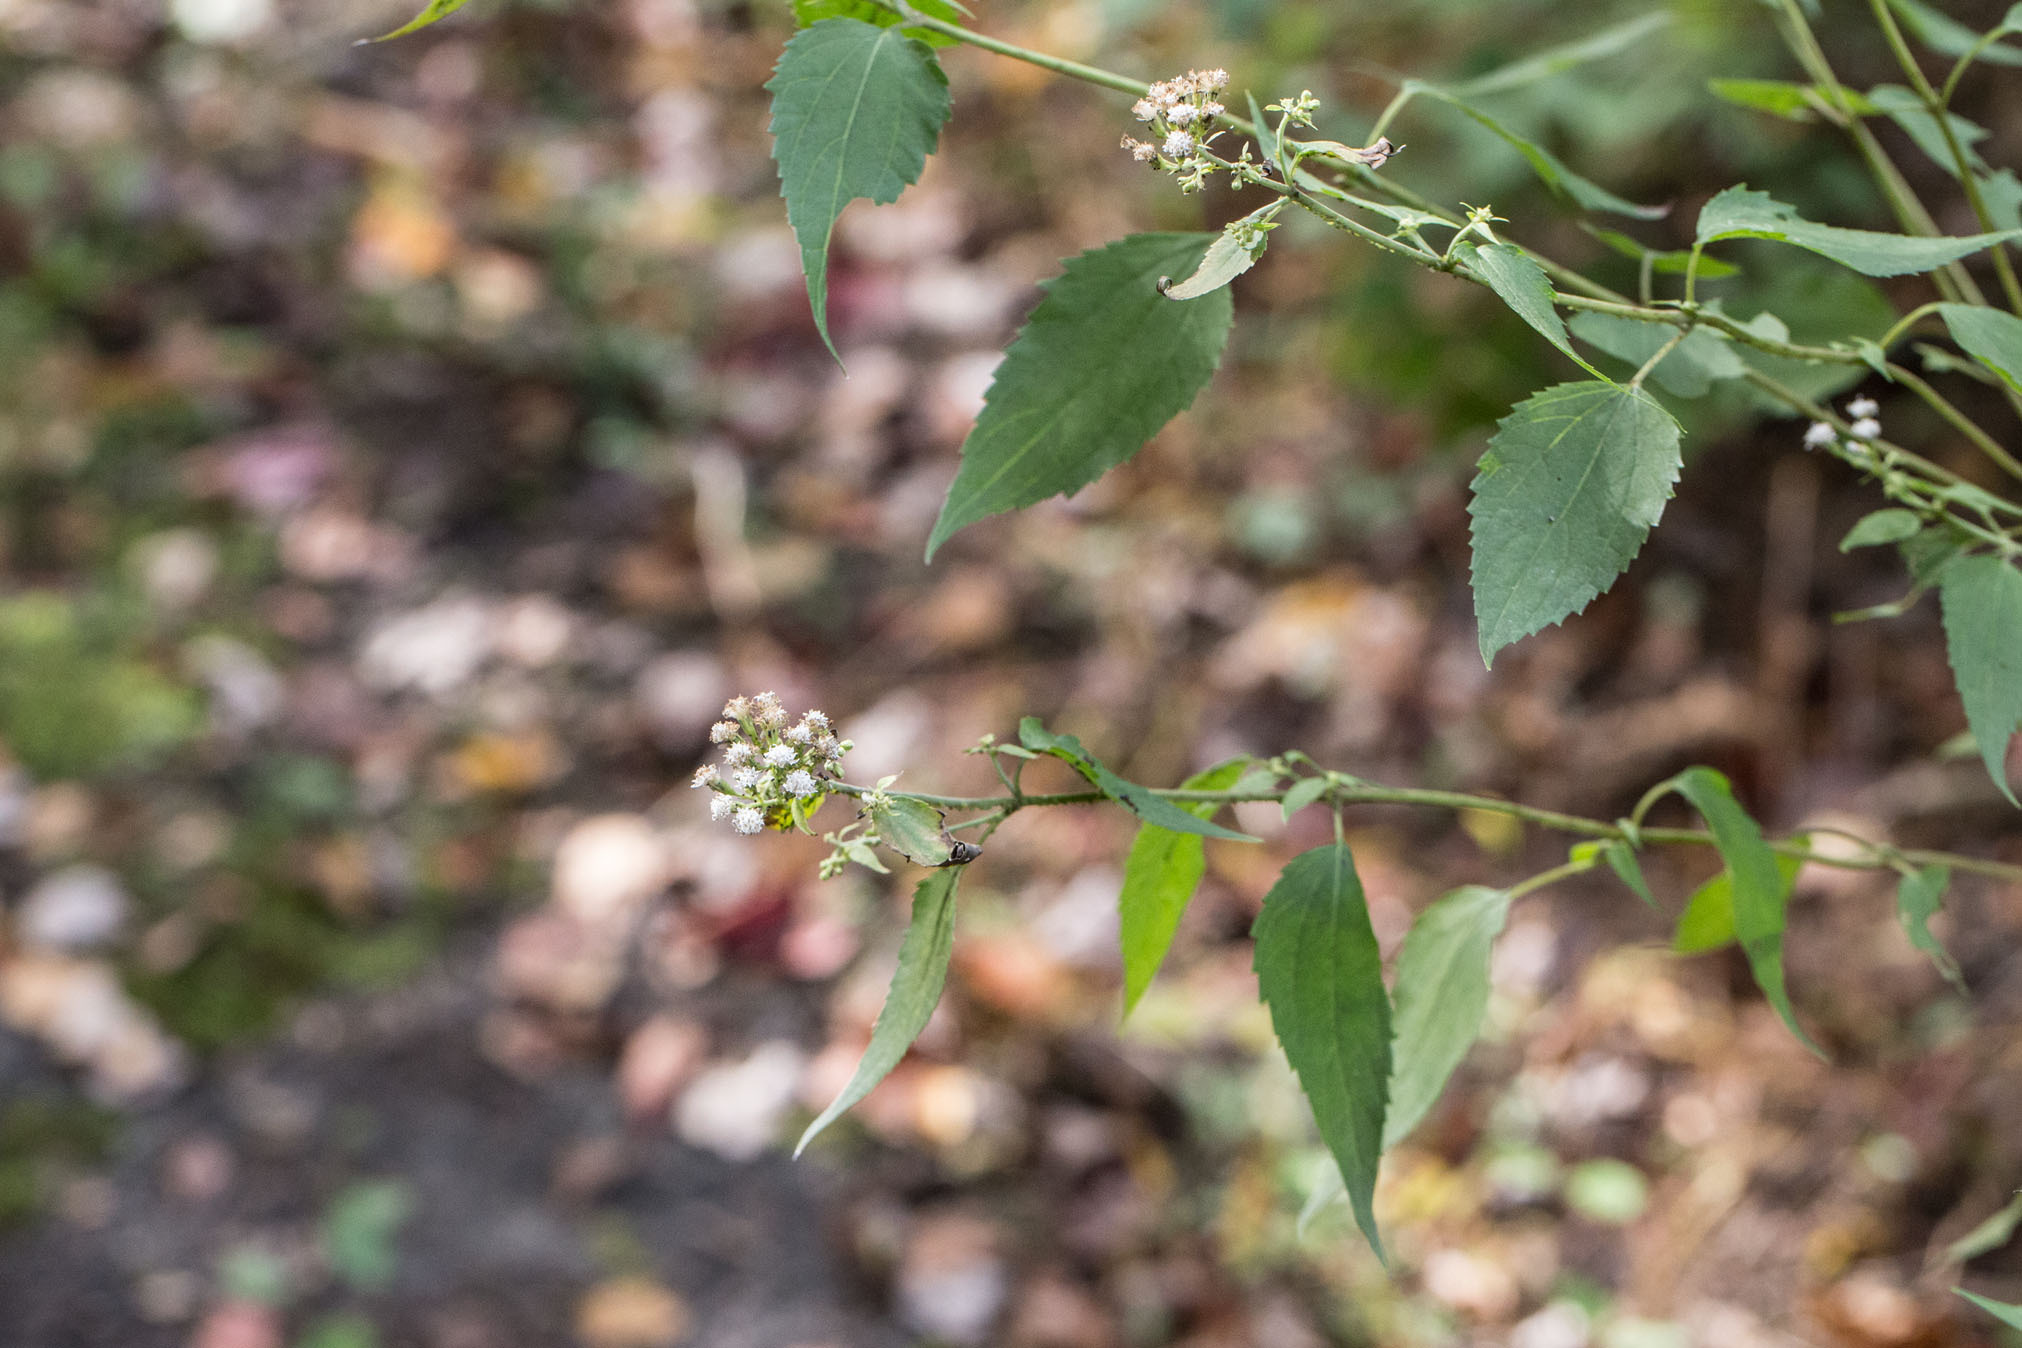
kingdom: Plantae
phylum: Tracheophyta
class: Magnoliopsida
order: Asterales
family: Asteraceae
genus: Ageratina
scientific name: Ageratina altissima
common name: White snakeroot
